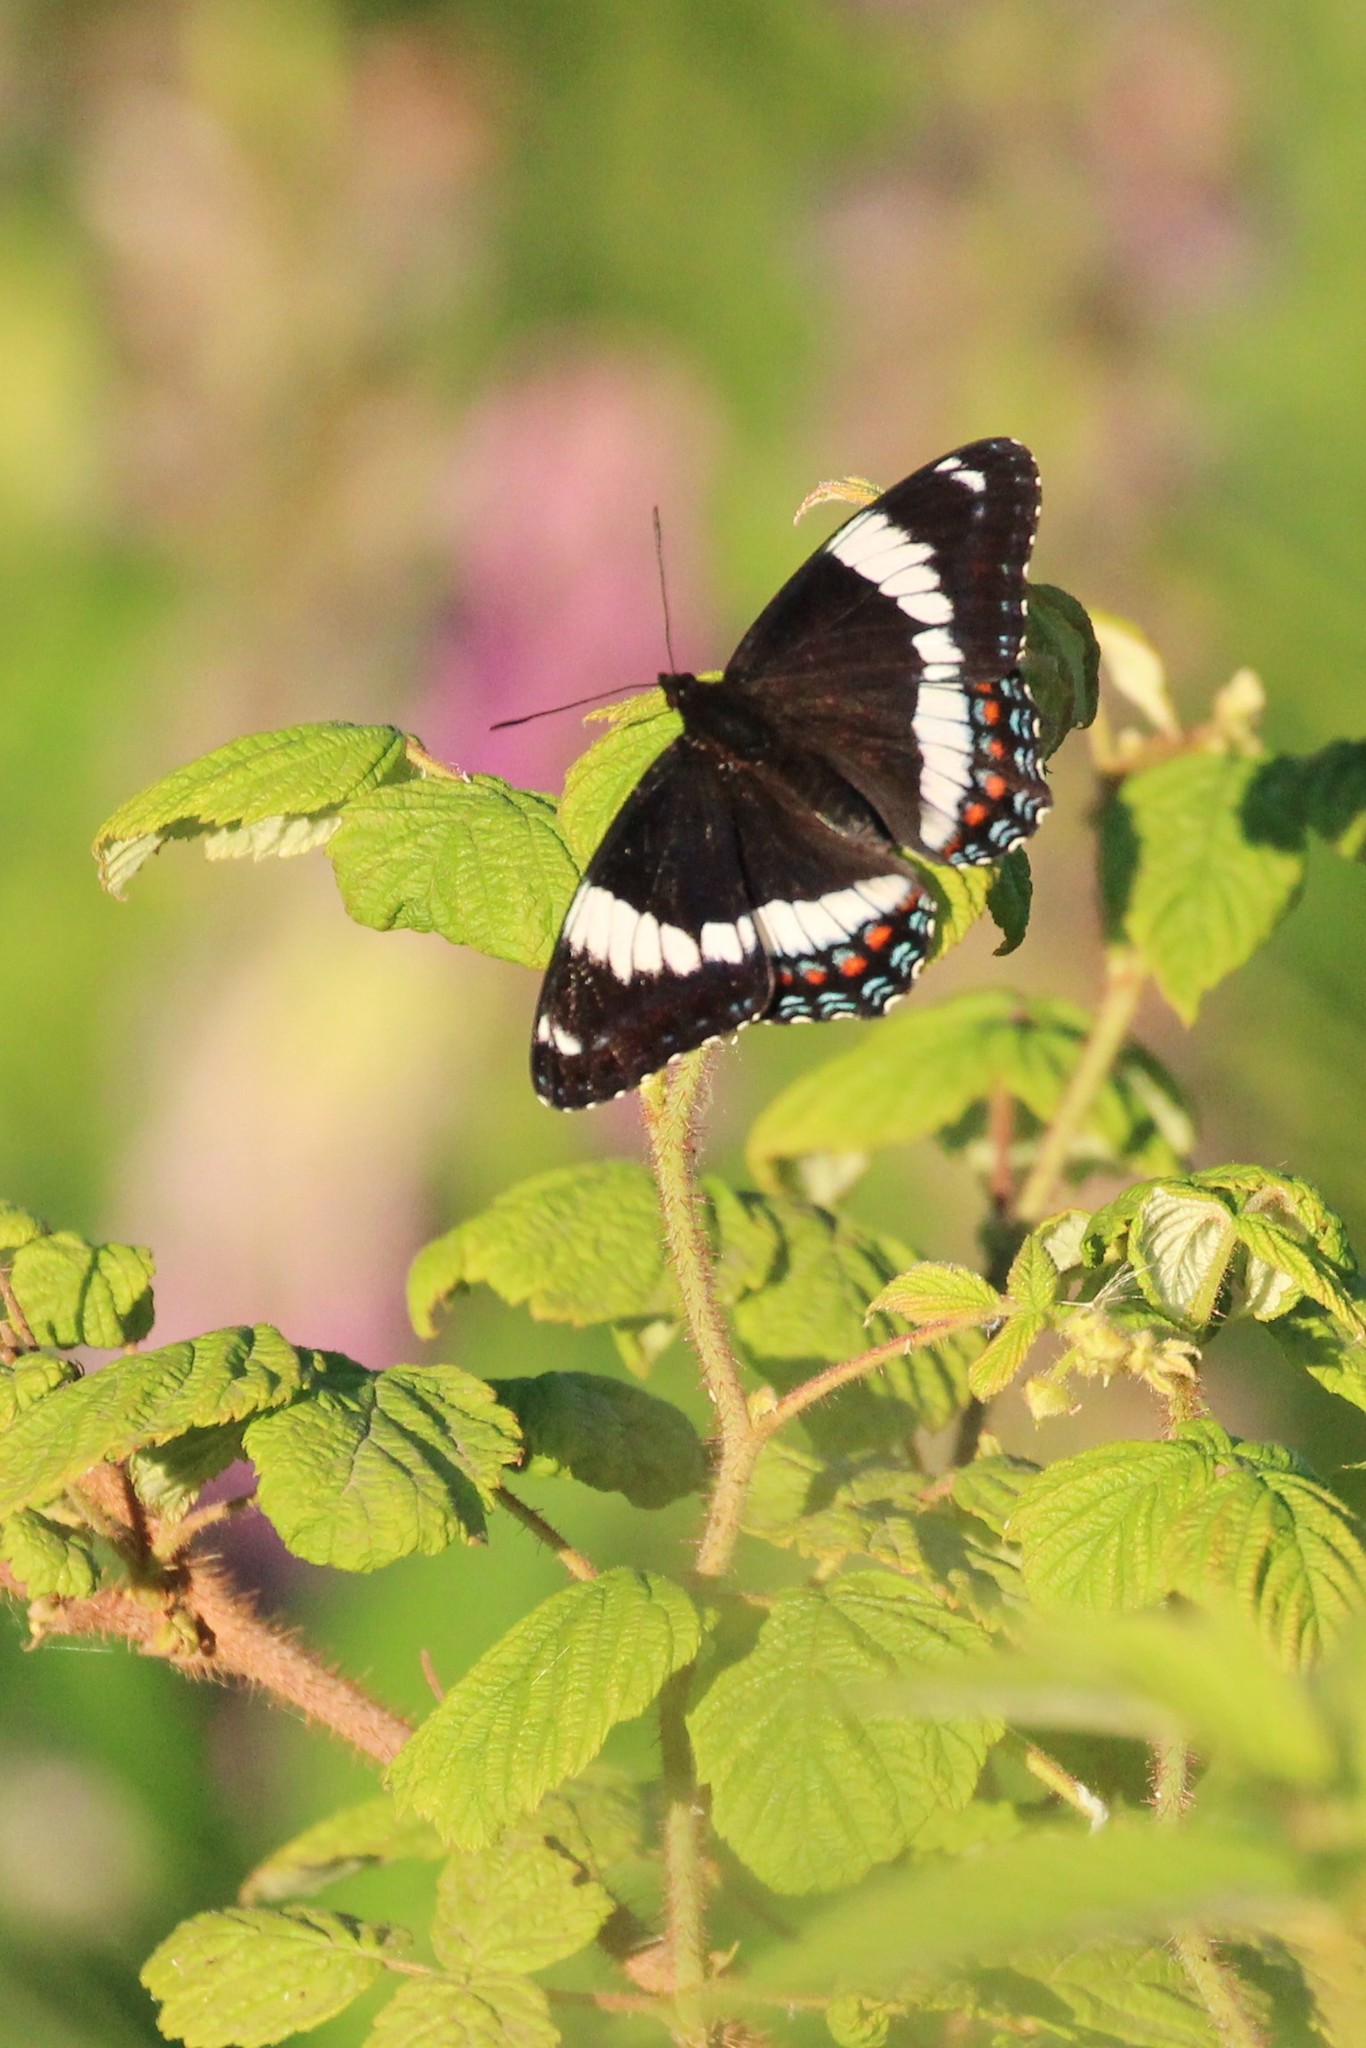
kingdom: Animalia
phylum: Arthropoda
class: Insecta
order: Lepidoptera
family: Nymphalidae
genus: Limenitis
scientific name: Limenitis arthemis
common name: Red-spotted admiral
